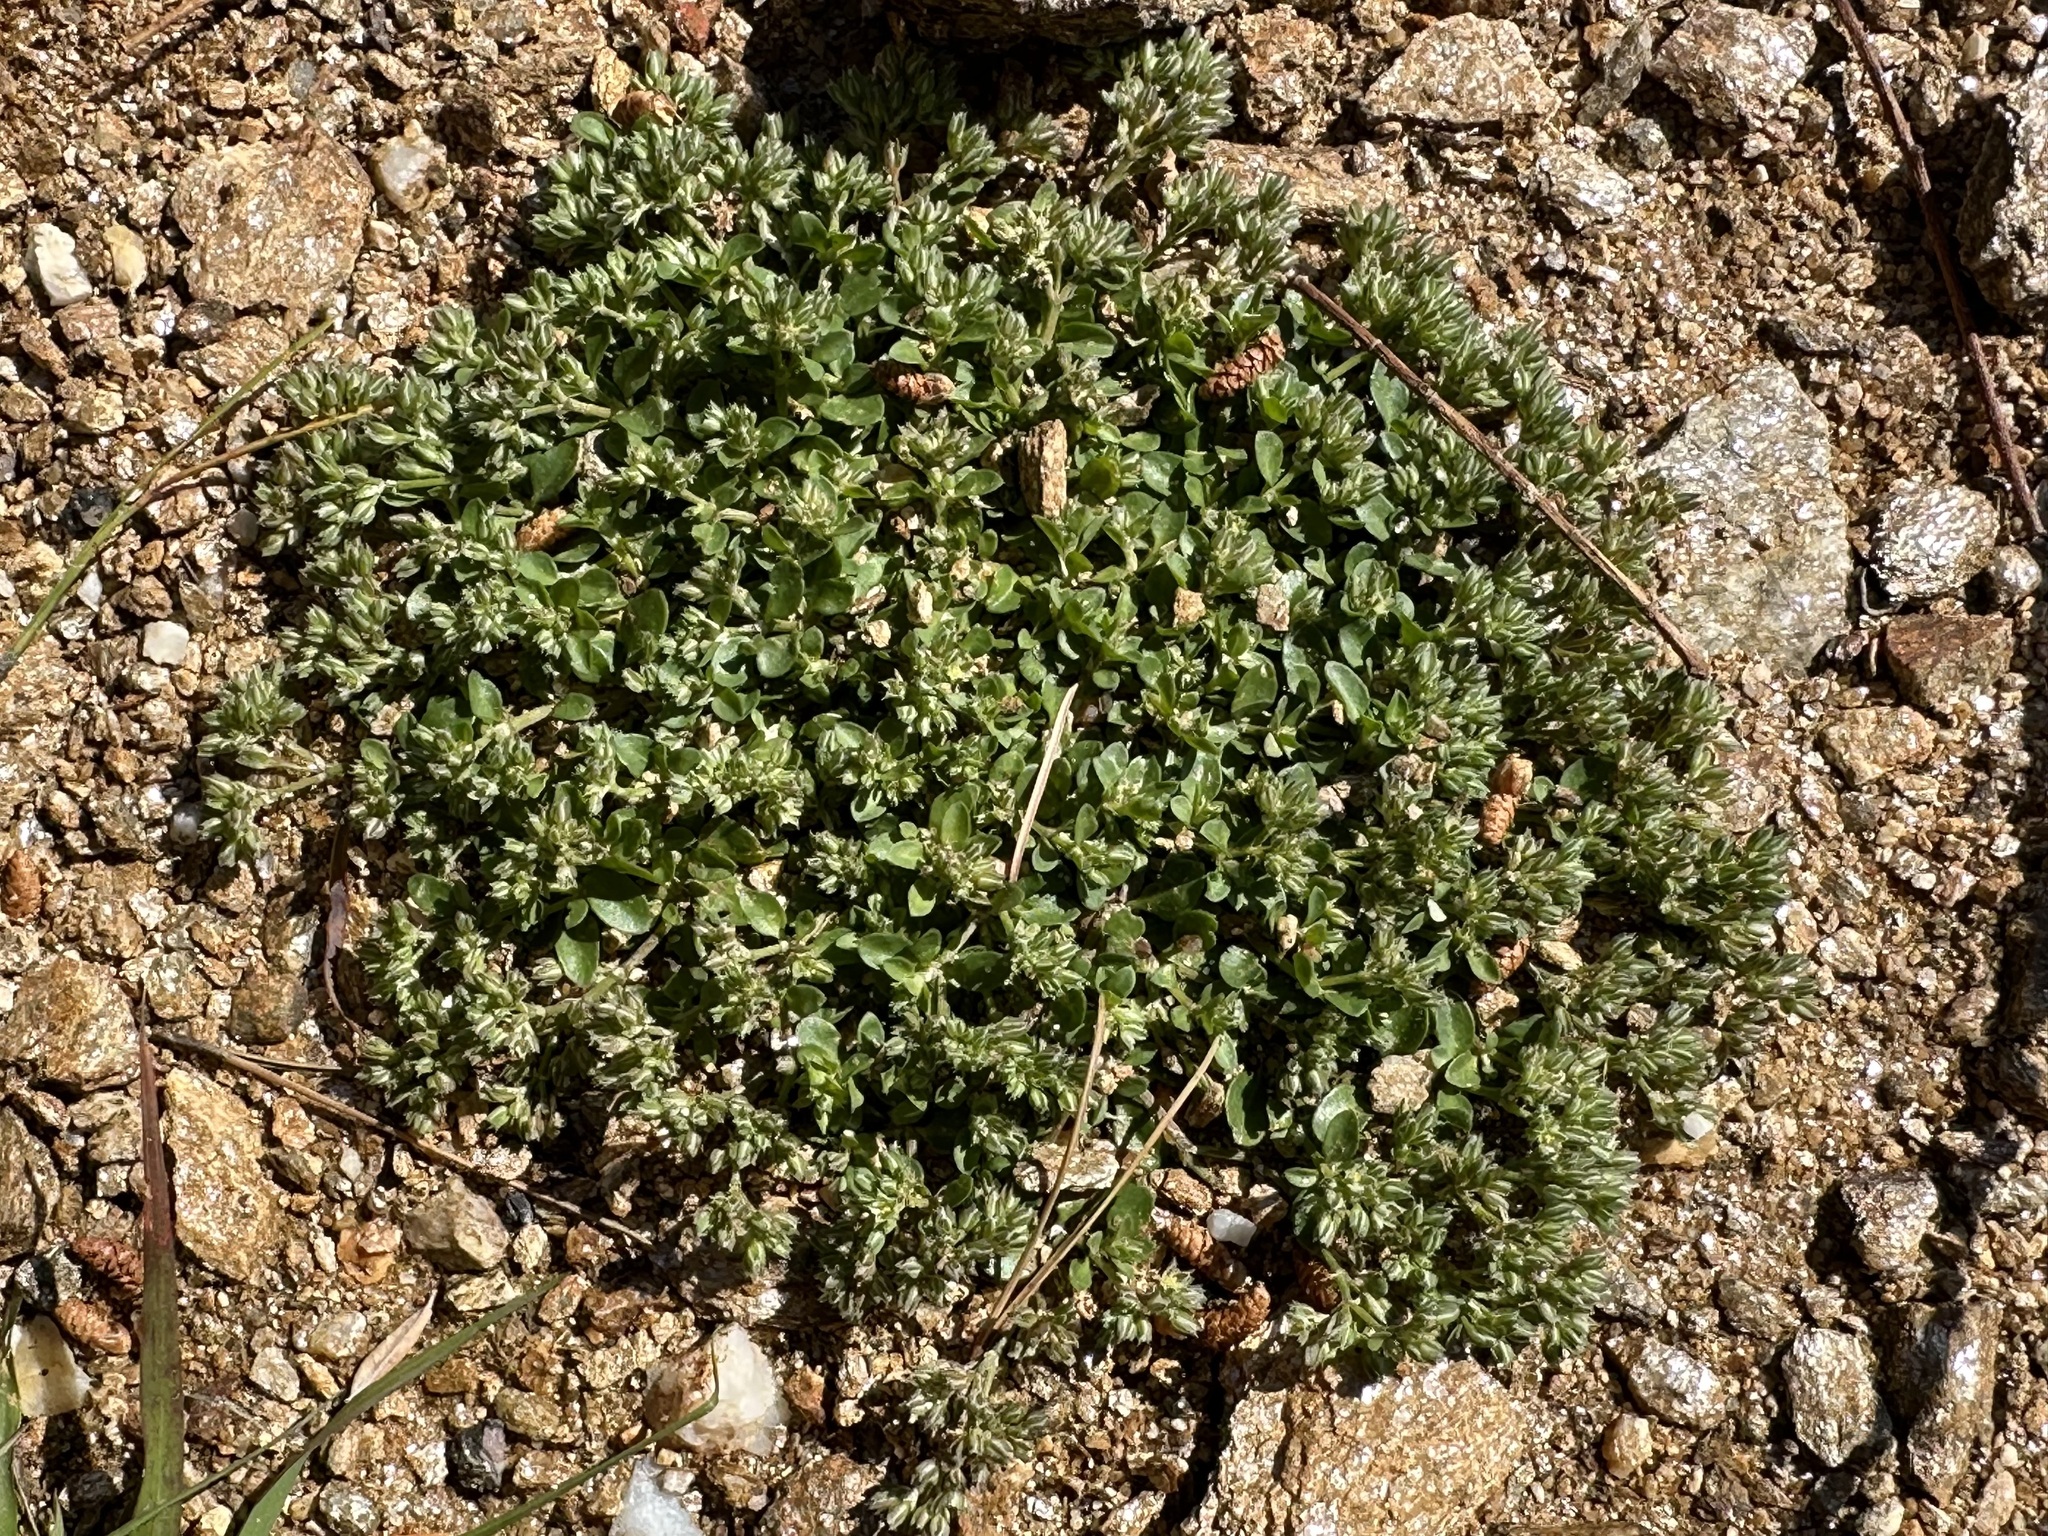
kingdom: Plantae
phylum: Tracheophyta
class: Magnoliopsida
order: Caryophyllales
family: Caryophyllaceae
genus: Polycarpon
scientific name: Polycarpon tetraphyllum
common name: Four-leaved all-seed
